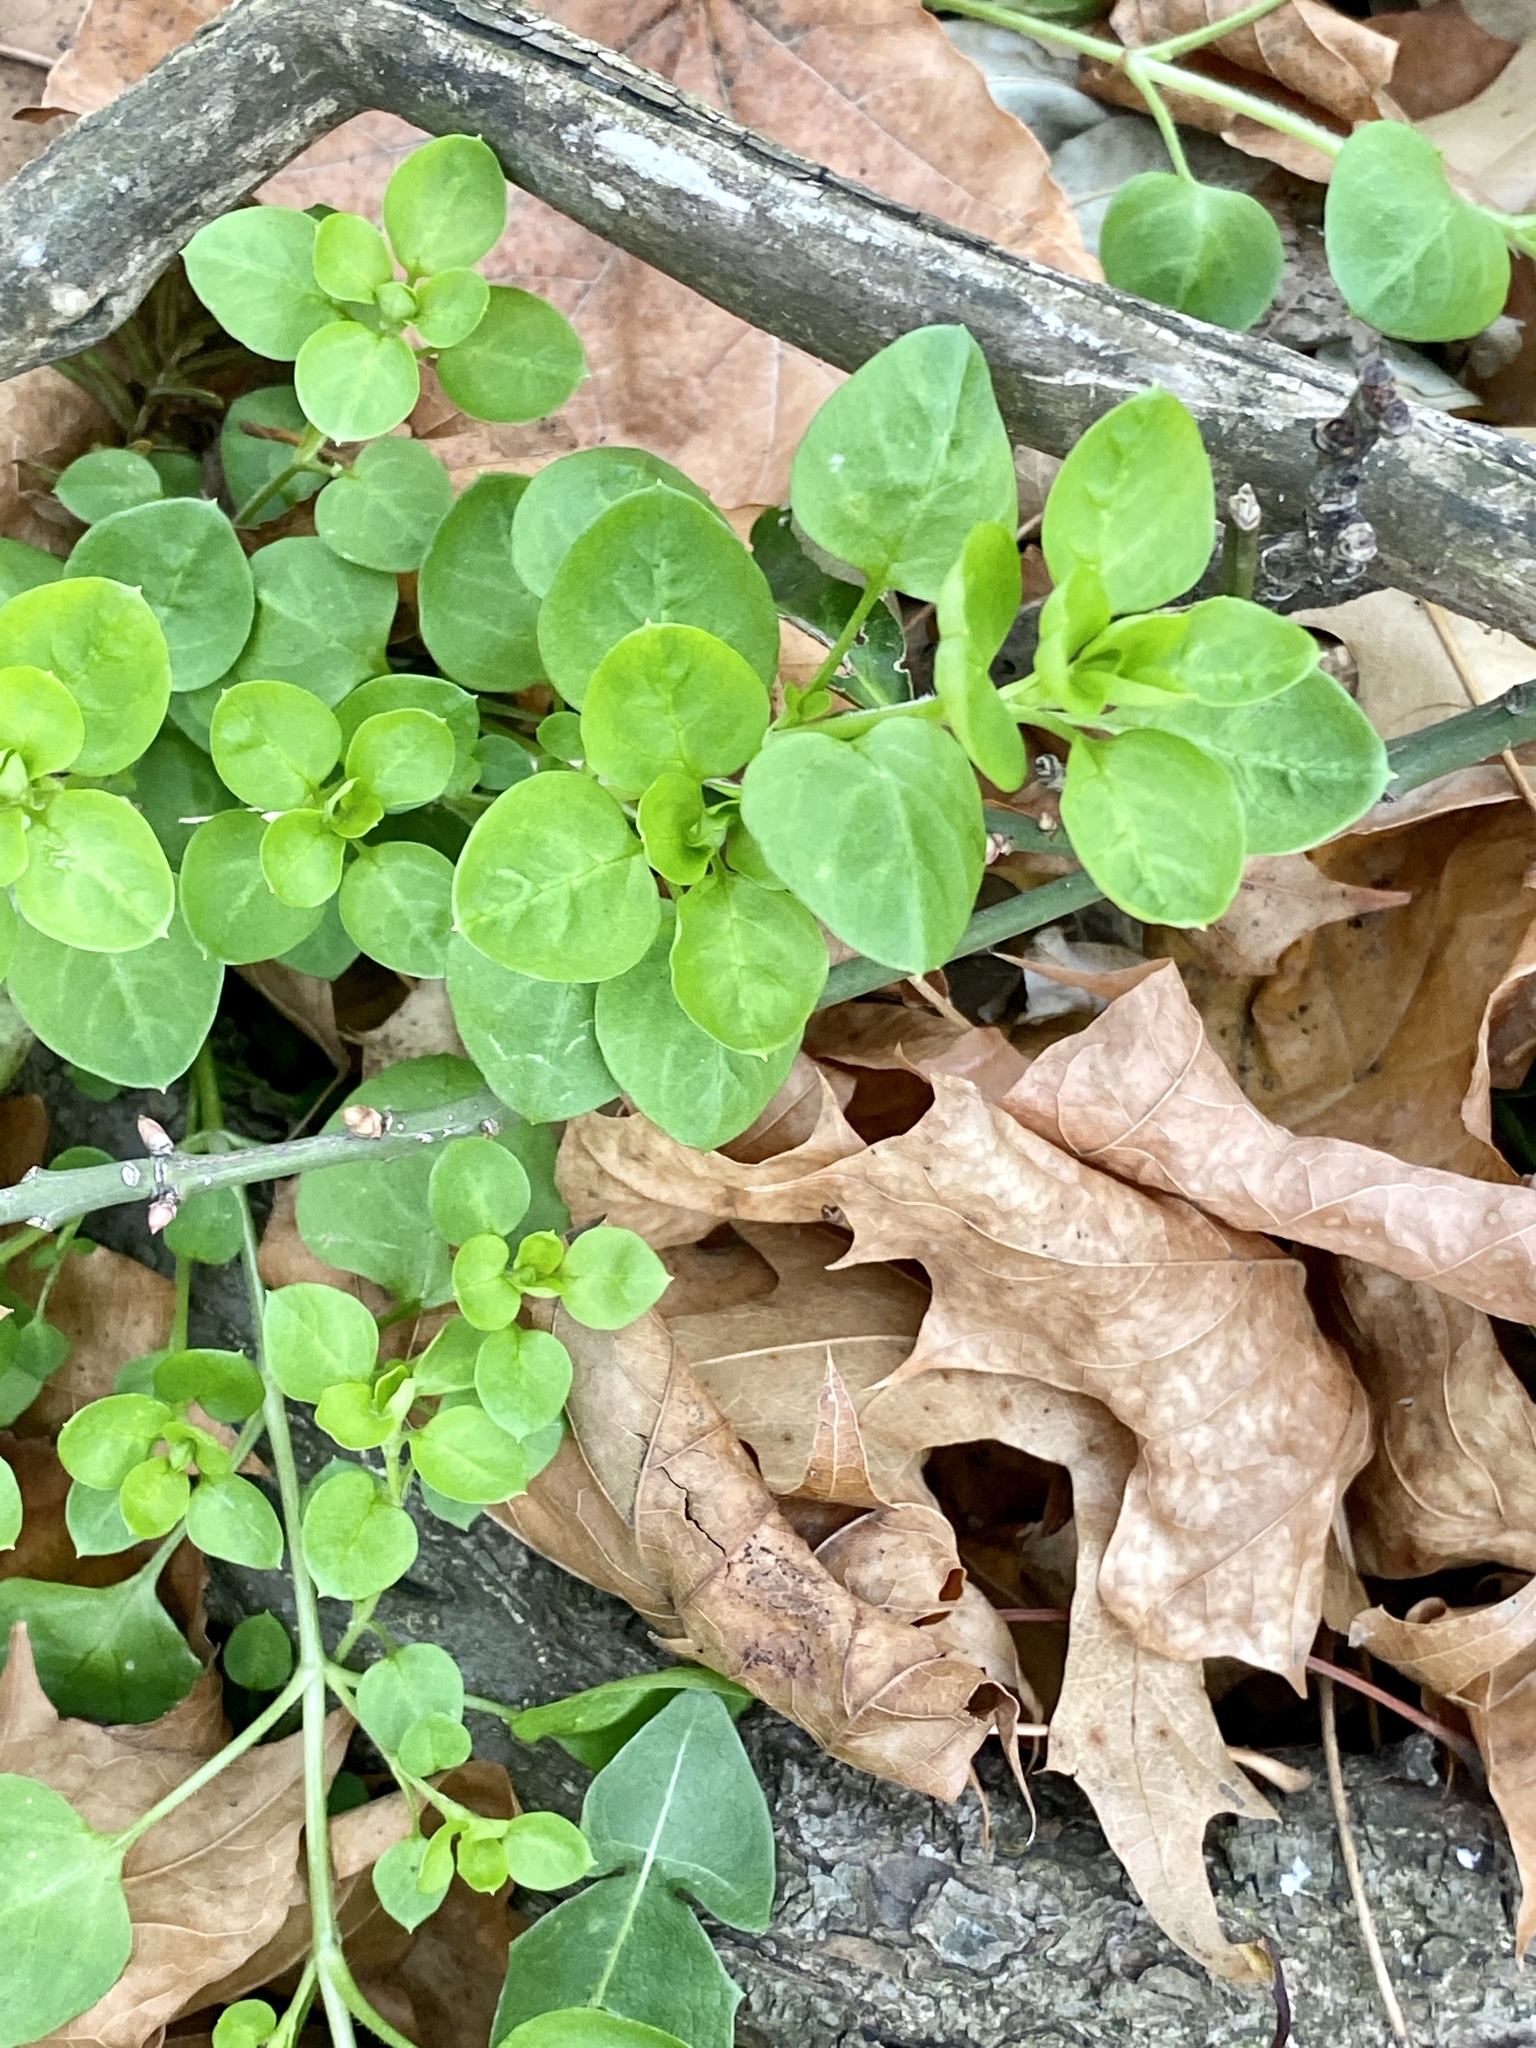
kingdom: Plantae
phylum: Tracheophyta
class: Magnoliopsida
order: Caryophyllales
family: Caryophyllaceae
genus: Stellaria
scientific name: Stellaria media
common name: Common chickweed
